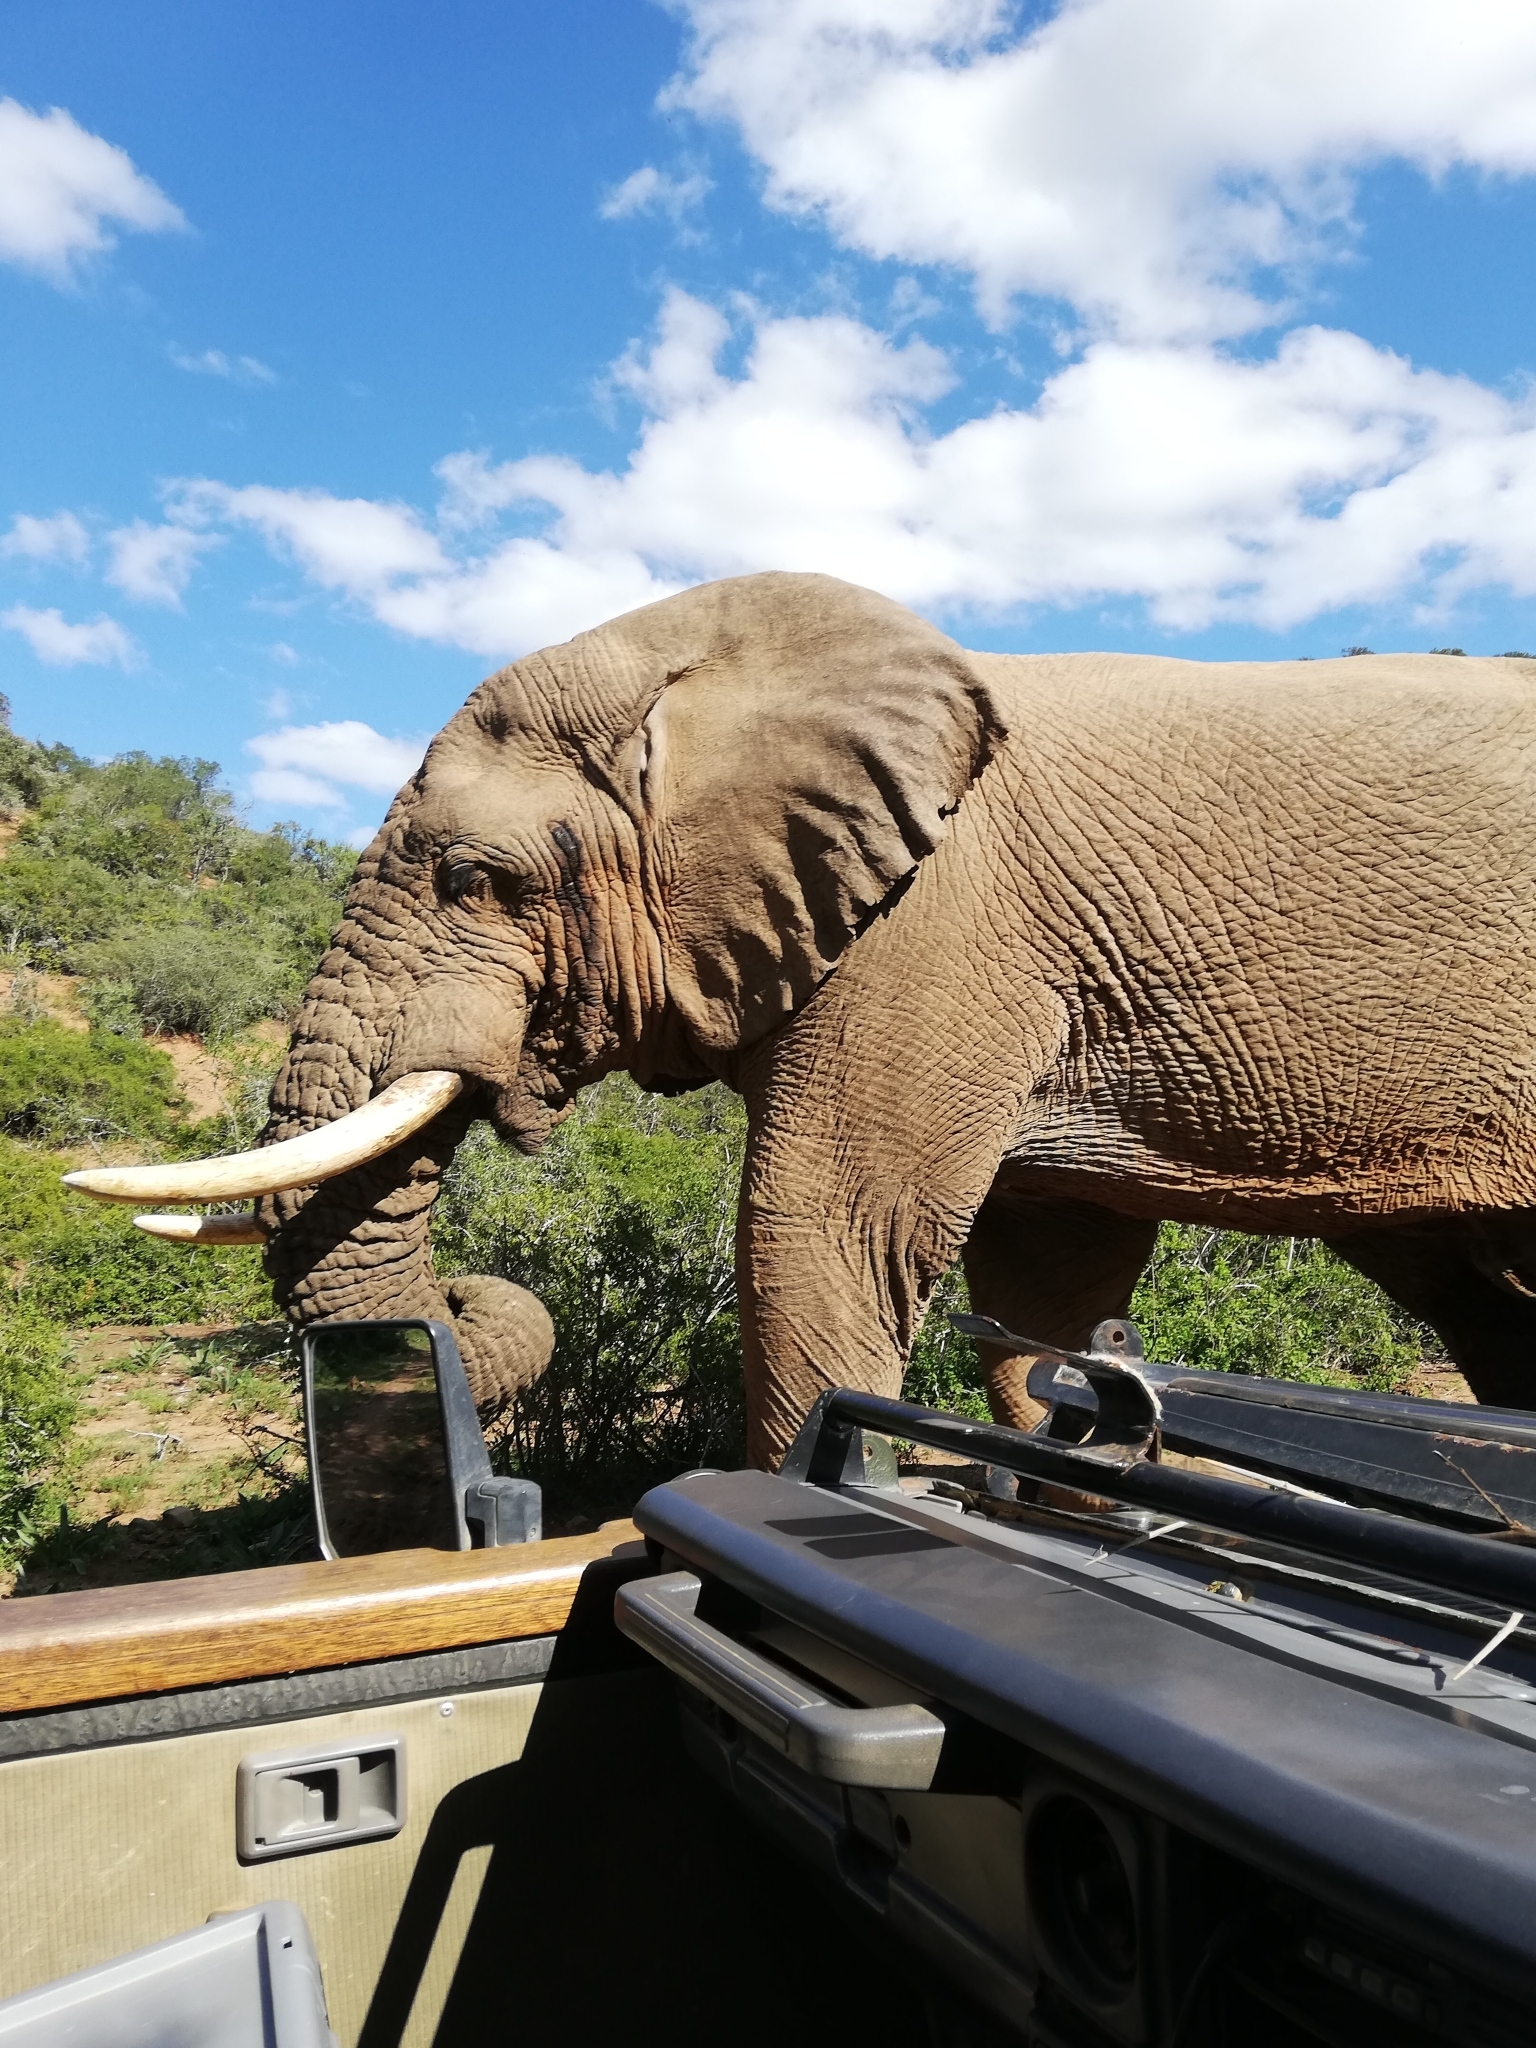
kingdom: Animalia
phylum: Chordata
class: Mammalia
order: Proboscidea
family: Elephantidae
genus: Loxodonta
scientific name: Loxodonta africana
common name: African elephant
